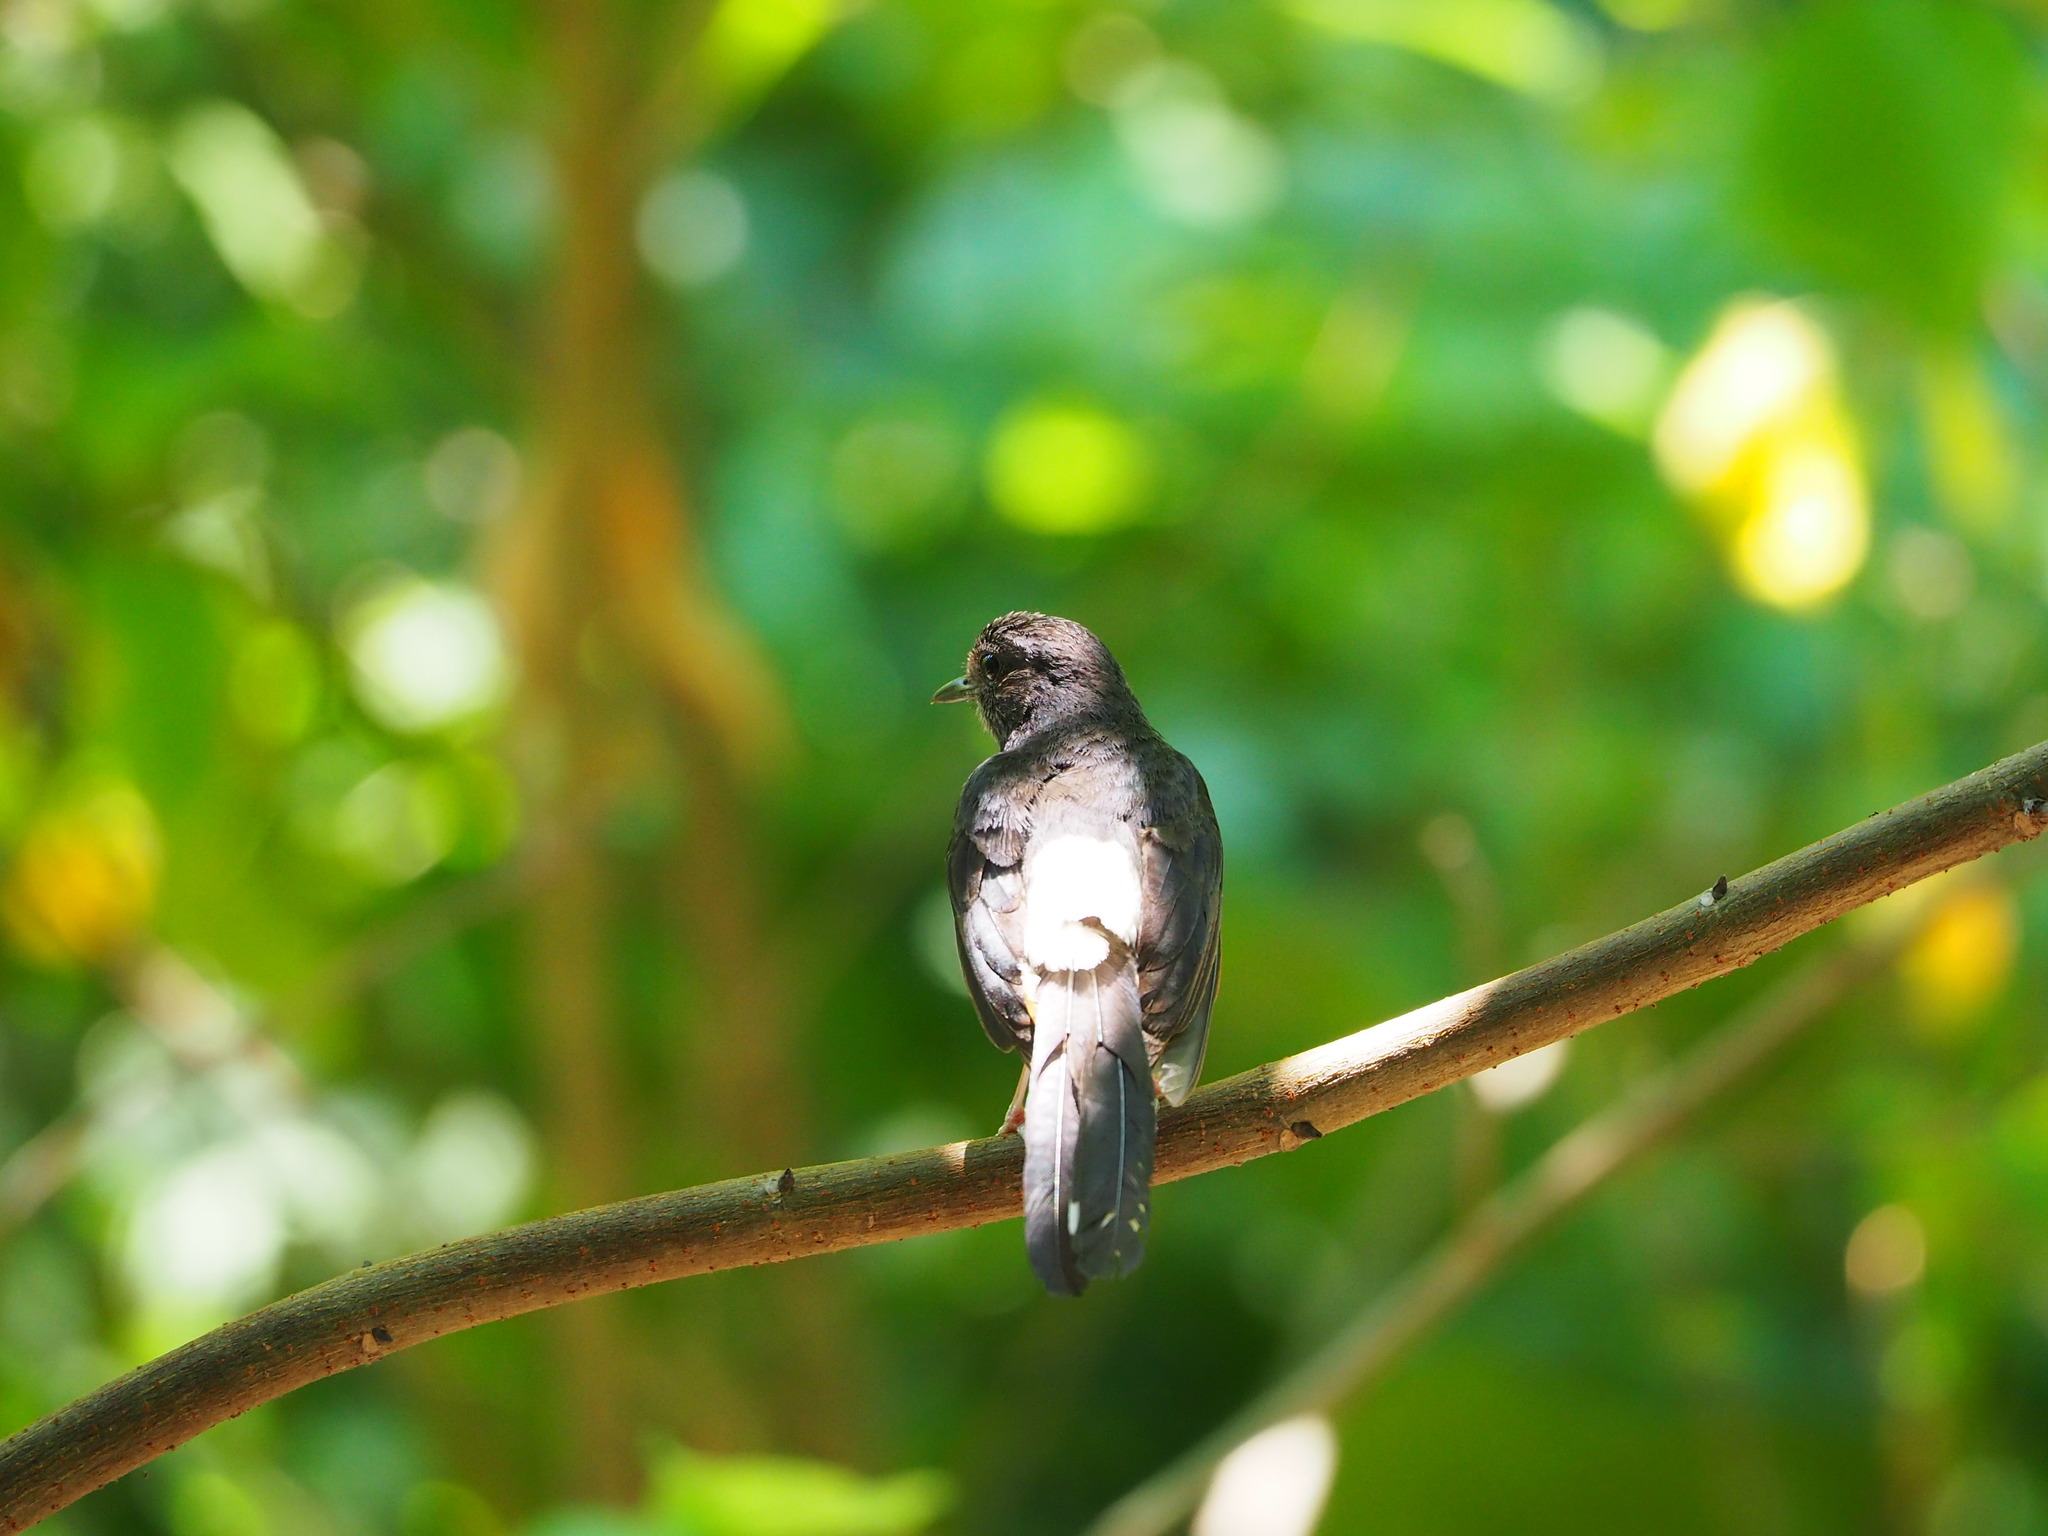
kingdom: Animalia
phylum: Chordata
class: Aves
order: Passeriformes
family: Muscicapidae
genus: Copsychus
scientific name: Copsychus malabaricus
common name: White-rumped shama
